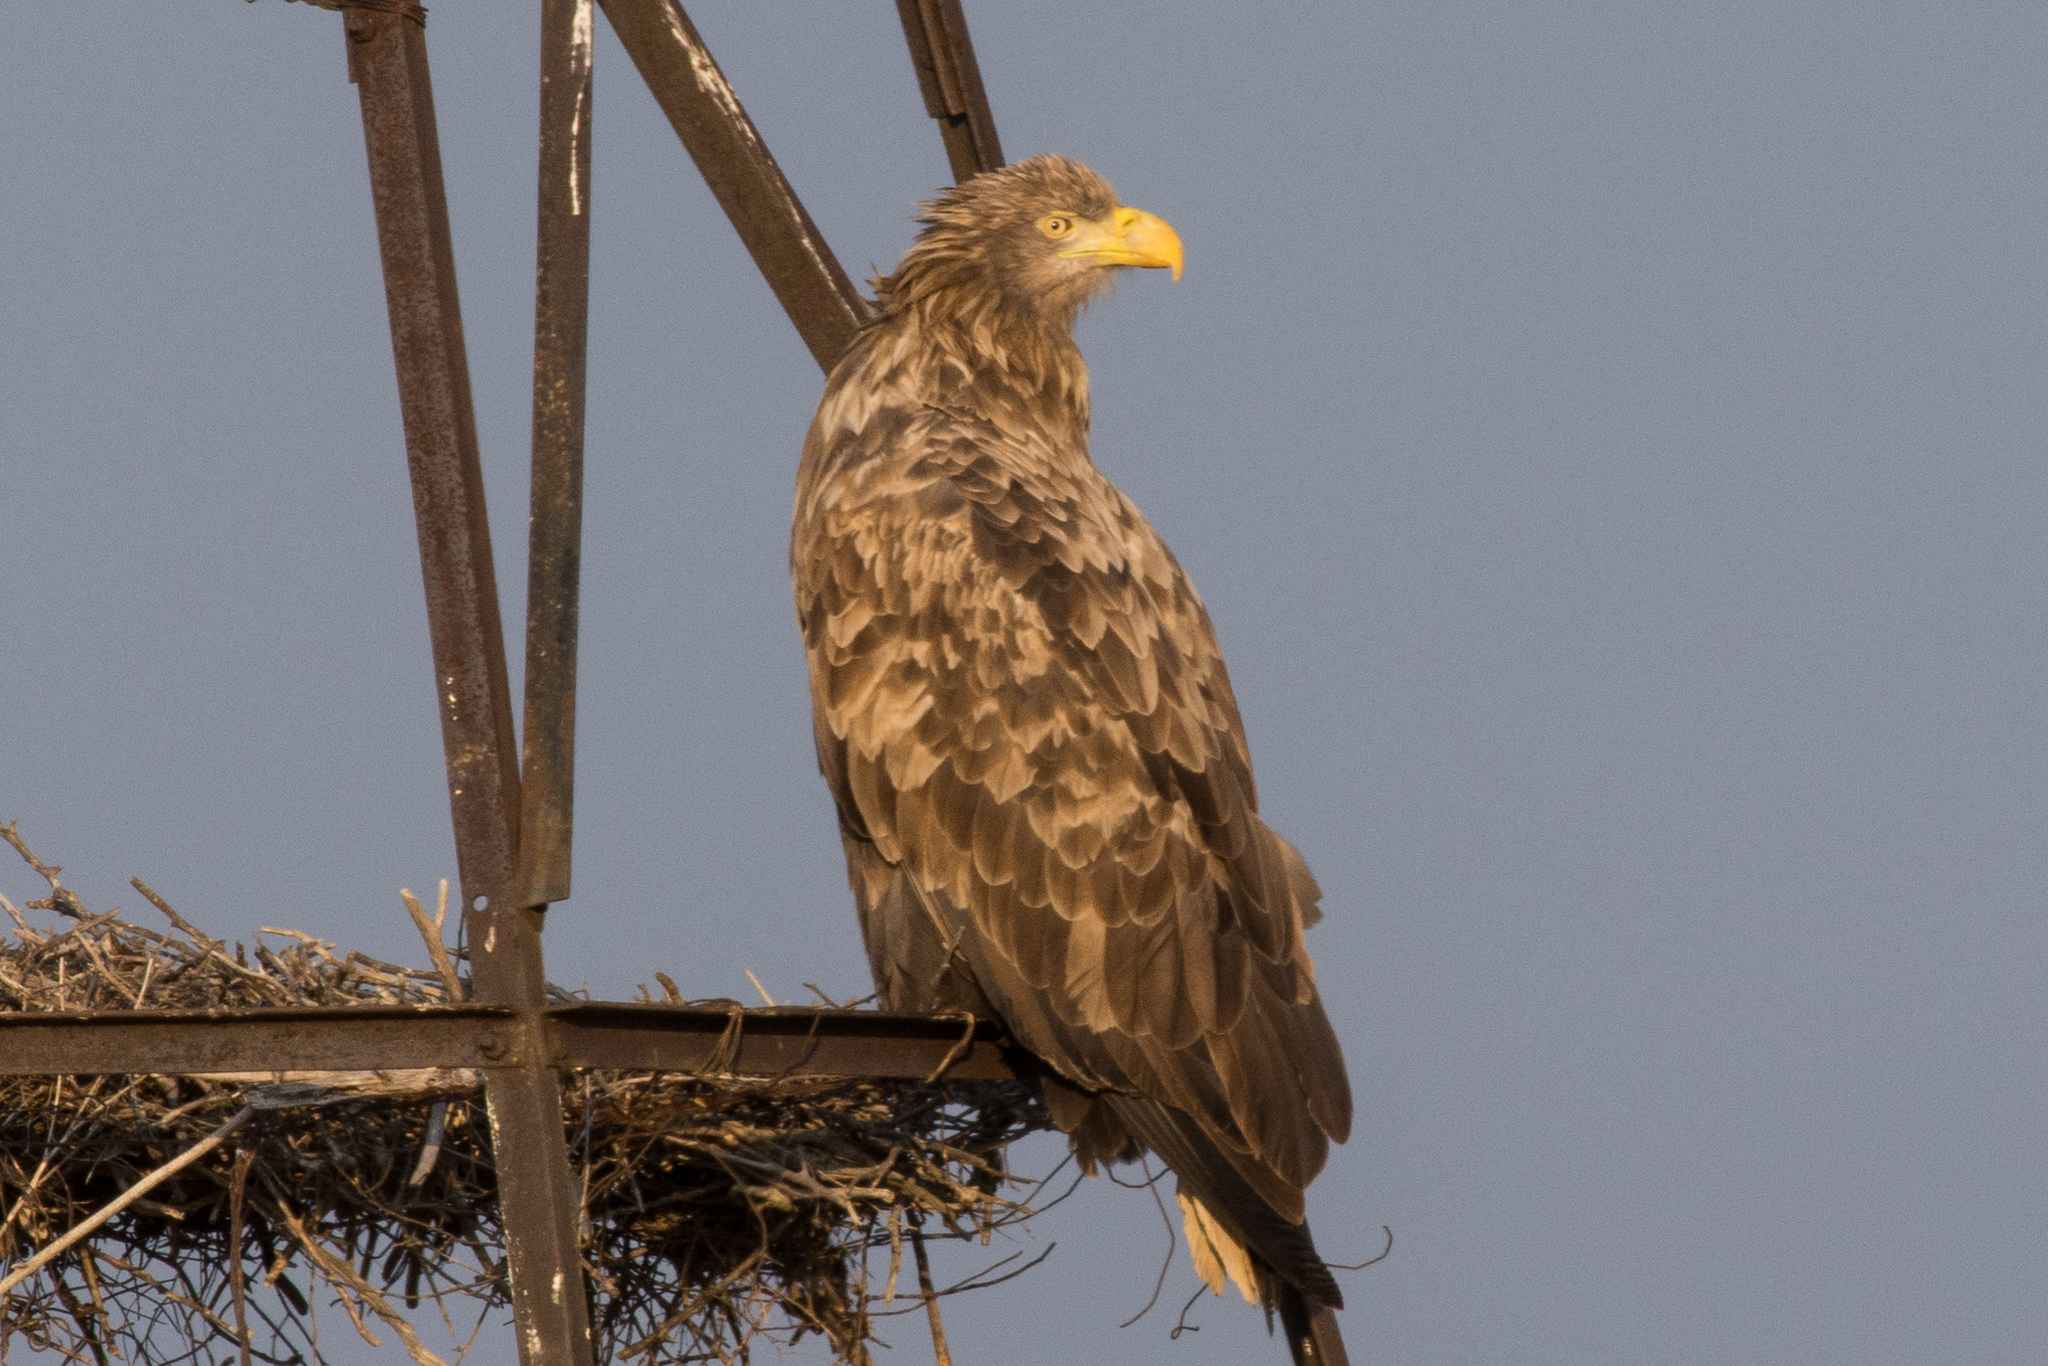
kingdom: Animalia
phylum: Chordata
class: Aves
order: Accipitriformes
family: Accipitridae
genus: Haliaeetus
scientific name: Haliaeetus albicilla
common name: White-tailed eagle
